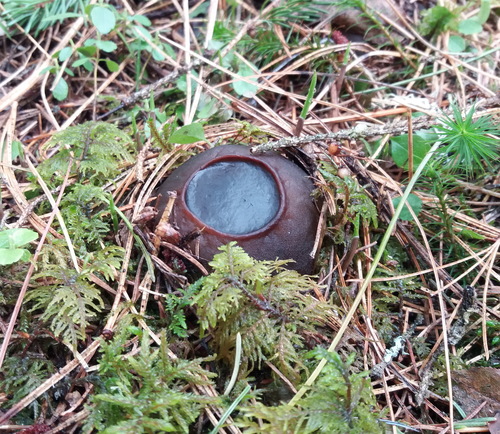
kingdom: Fungi
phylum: Ascomycota
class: Pezizomycetes
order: Pezizales
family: Sarcosomataceae
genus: Sarcosoma
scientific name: Sarcosoma globosum
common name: Charred-pancake cup
